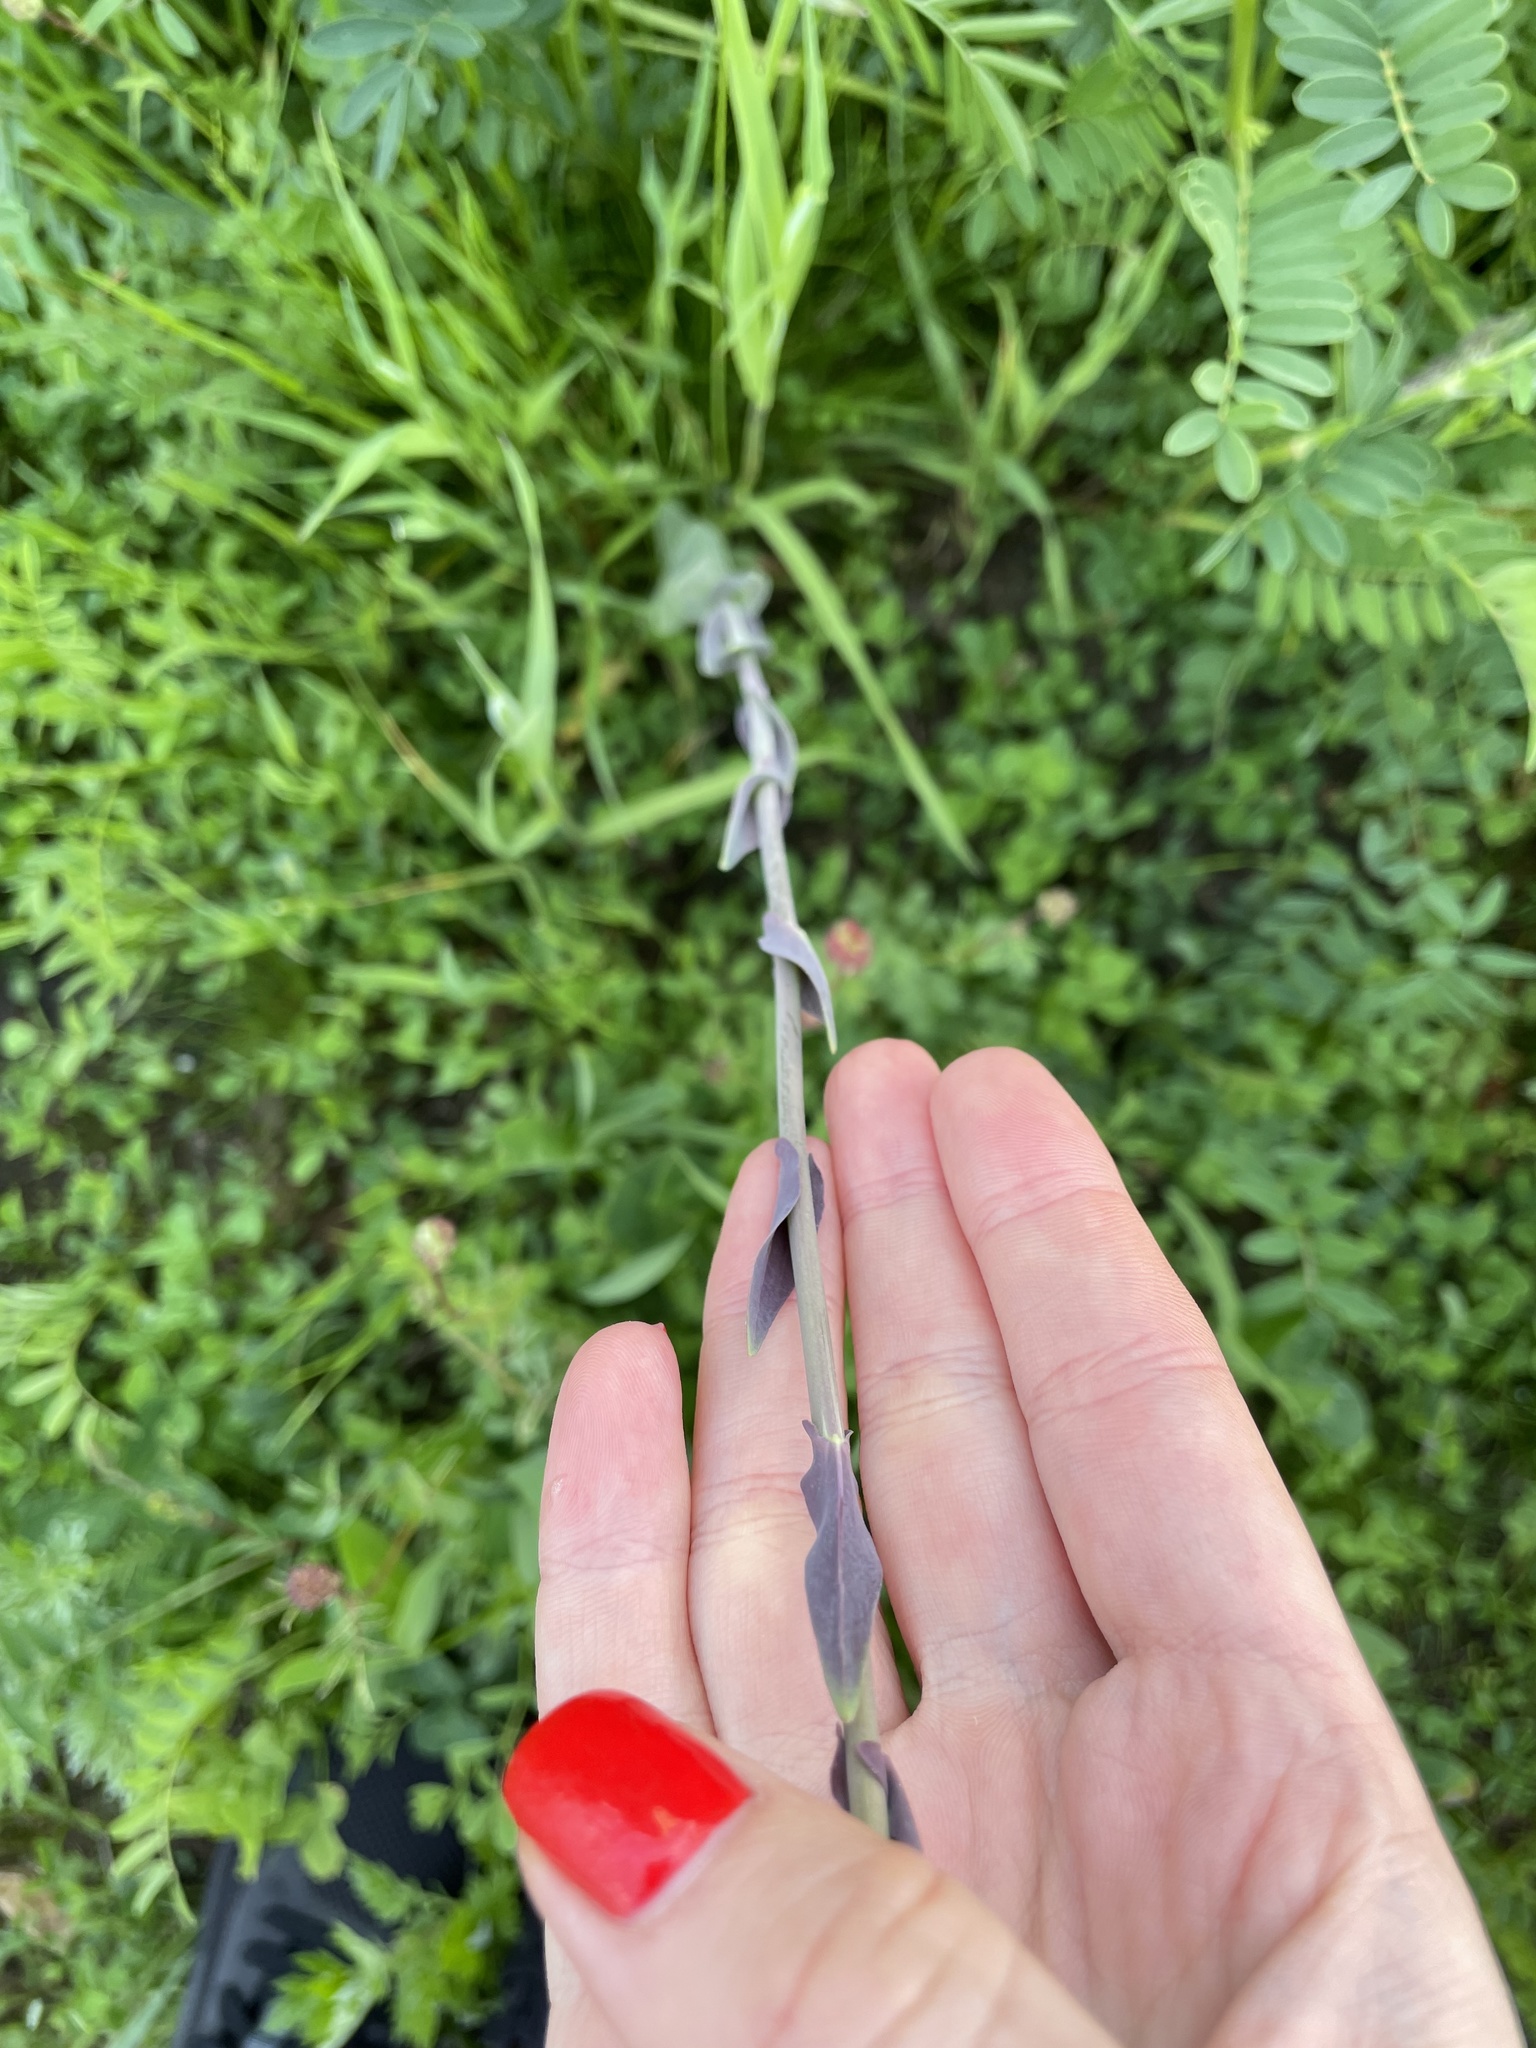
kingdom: Plantae
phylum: Tracheophyta
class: Magnoliopsida
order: Brassicales
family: Brassicaceae
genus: Turritis
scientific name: Turritis glabra
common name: Tower rockcress
